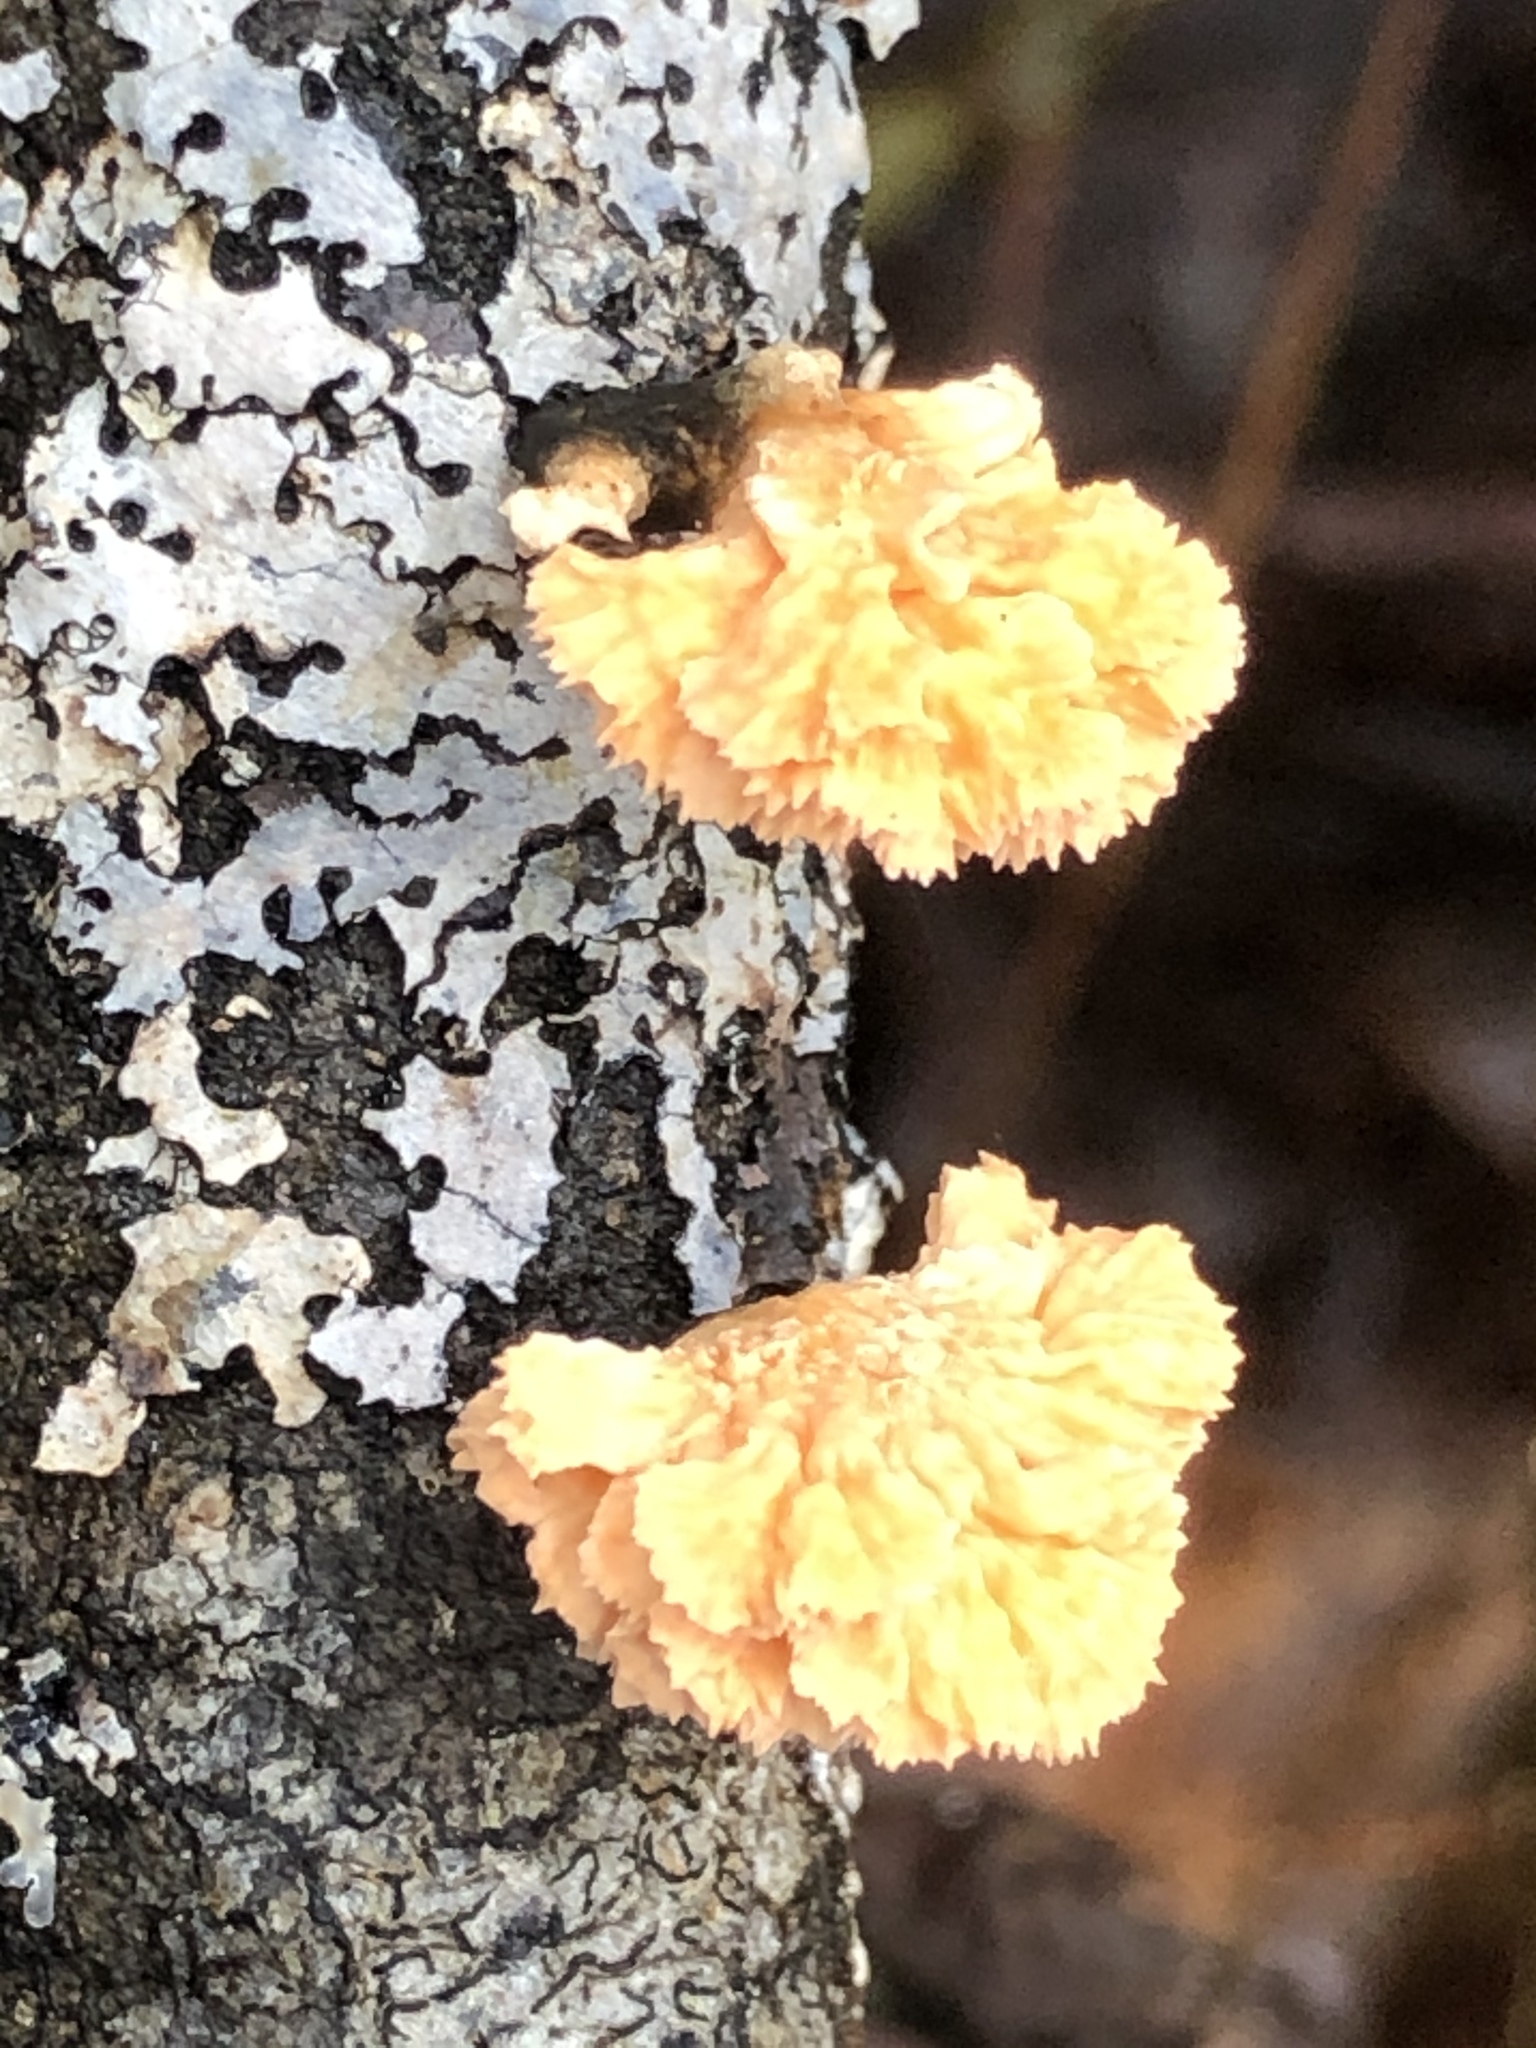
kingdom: Fungi
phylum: Ascomycota
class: Sordariomycetes
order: Xylariales
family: Xylariaceae
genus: Xylaria
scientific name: Xylaria cubensis
